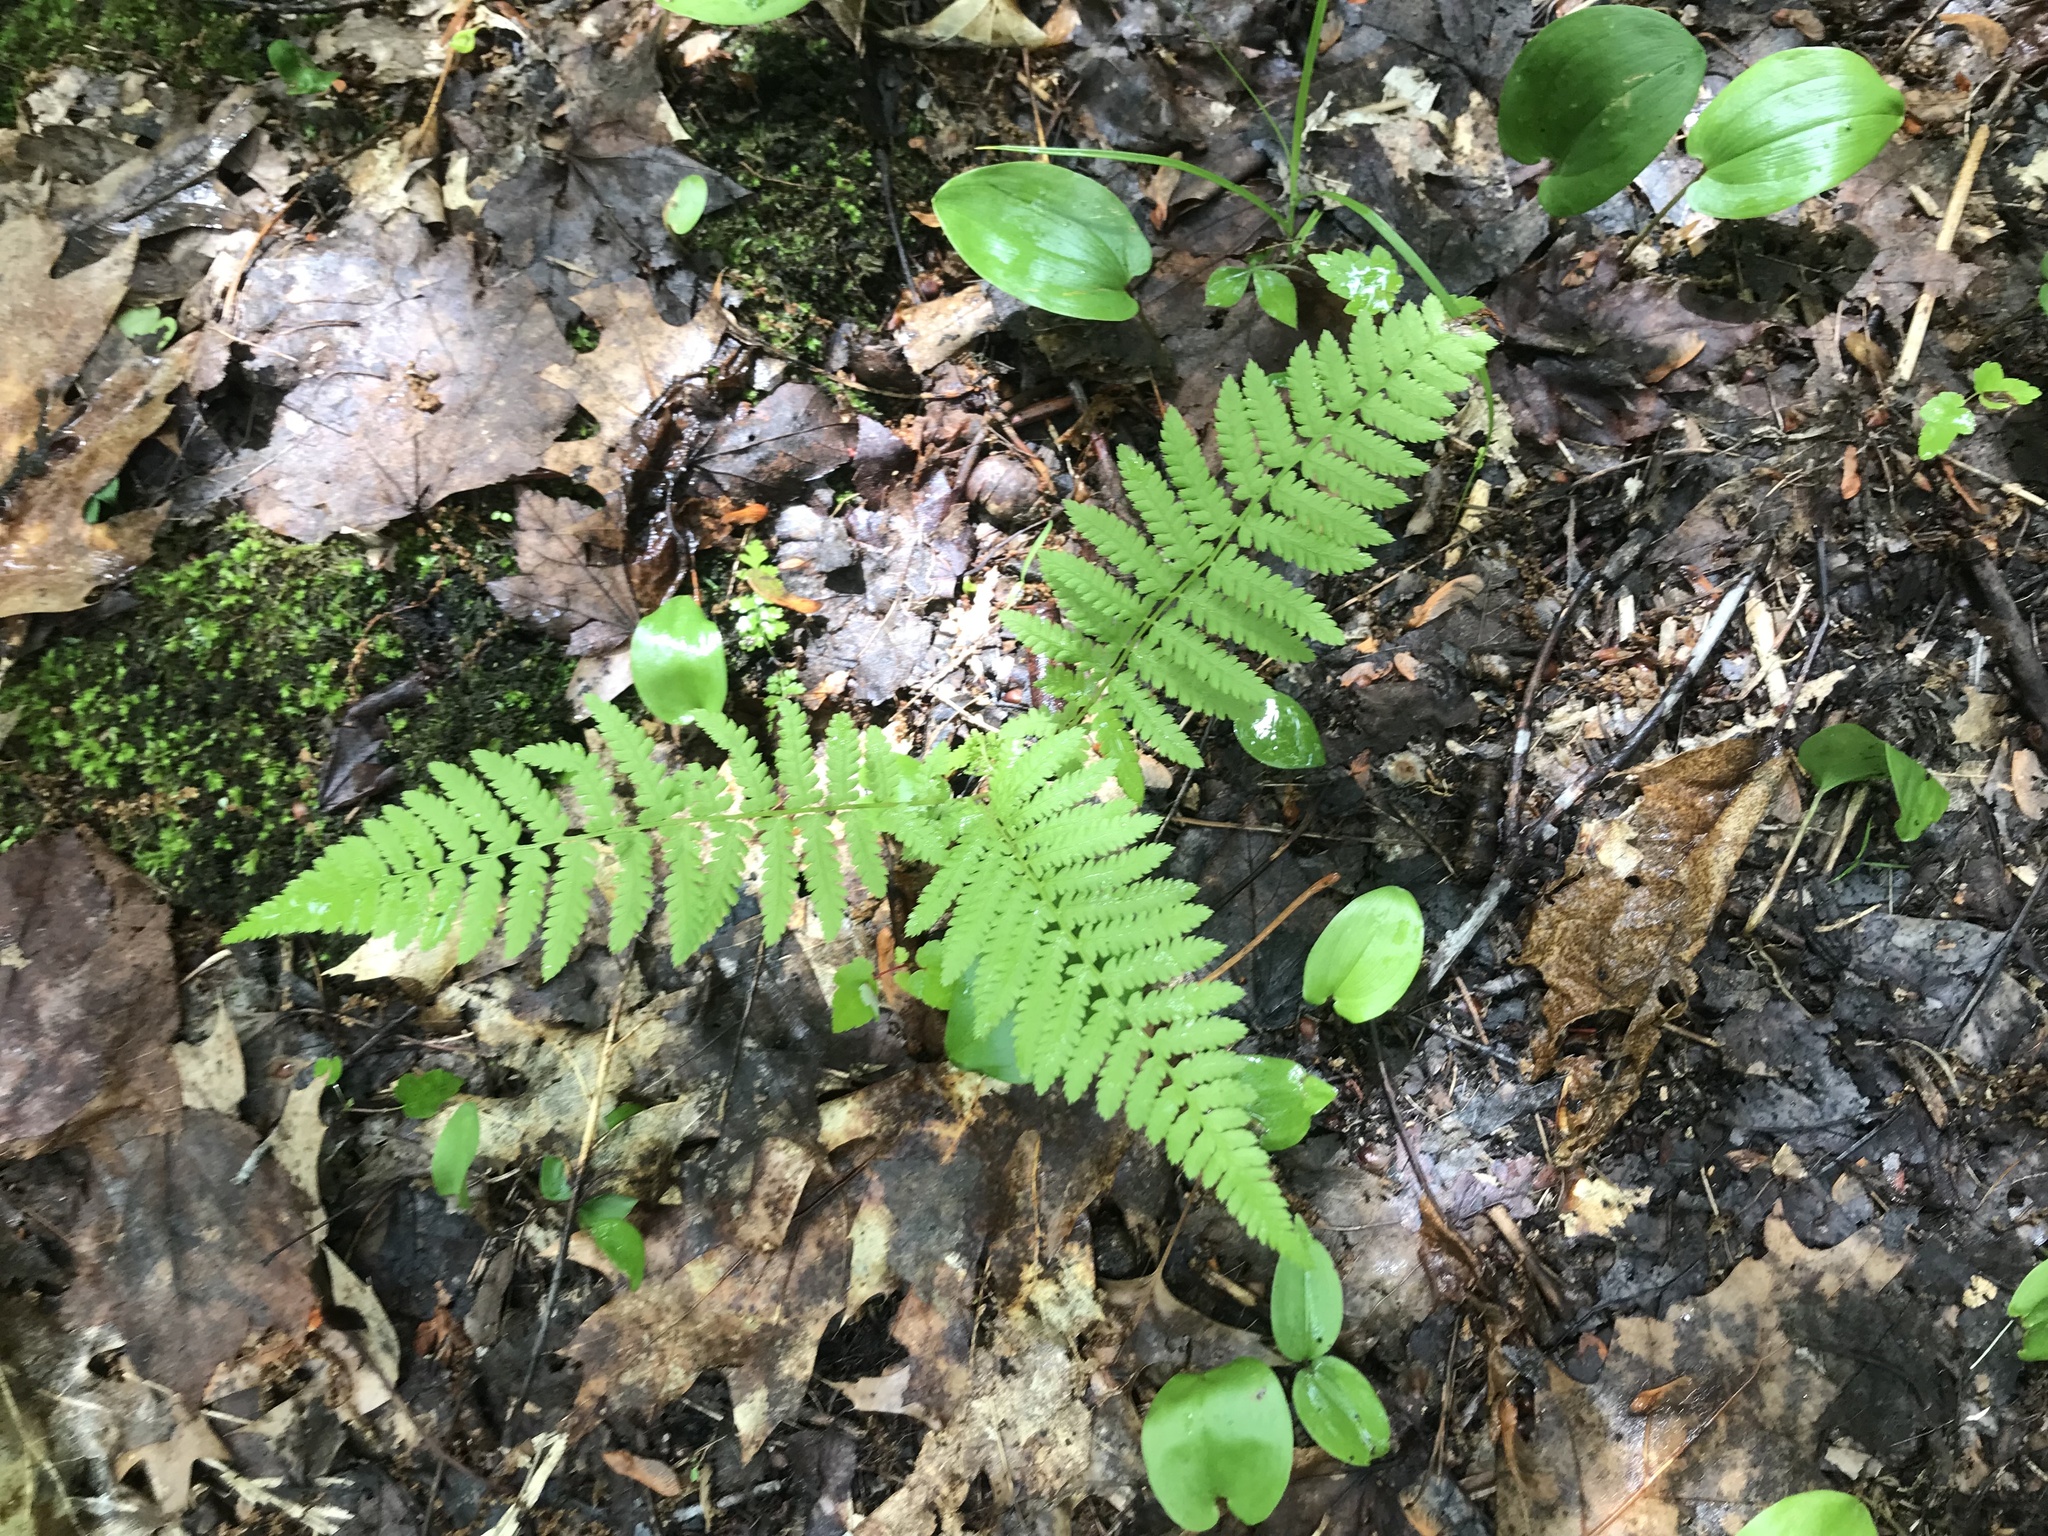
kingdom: Plantae
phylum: Tracheophyta
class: Polypodiopsida
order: Polypodiales
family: Athyriaceae
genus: Athyrium
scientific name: Athyrium angustum
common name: Northern lady fern
